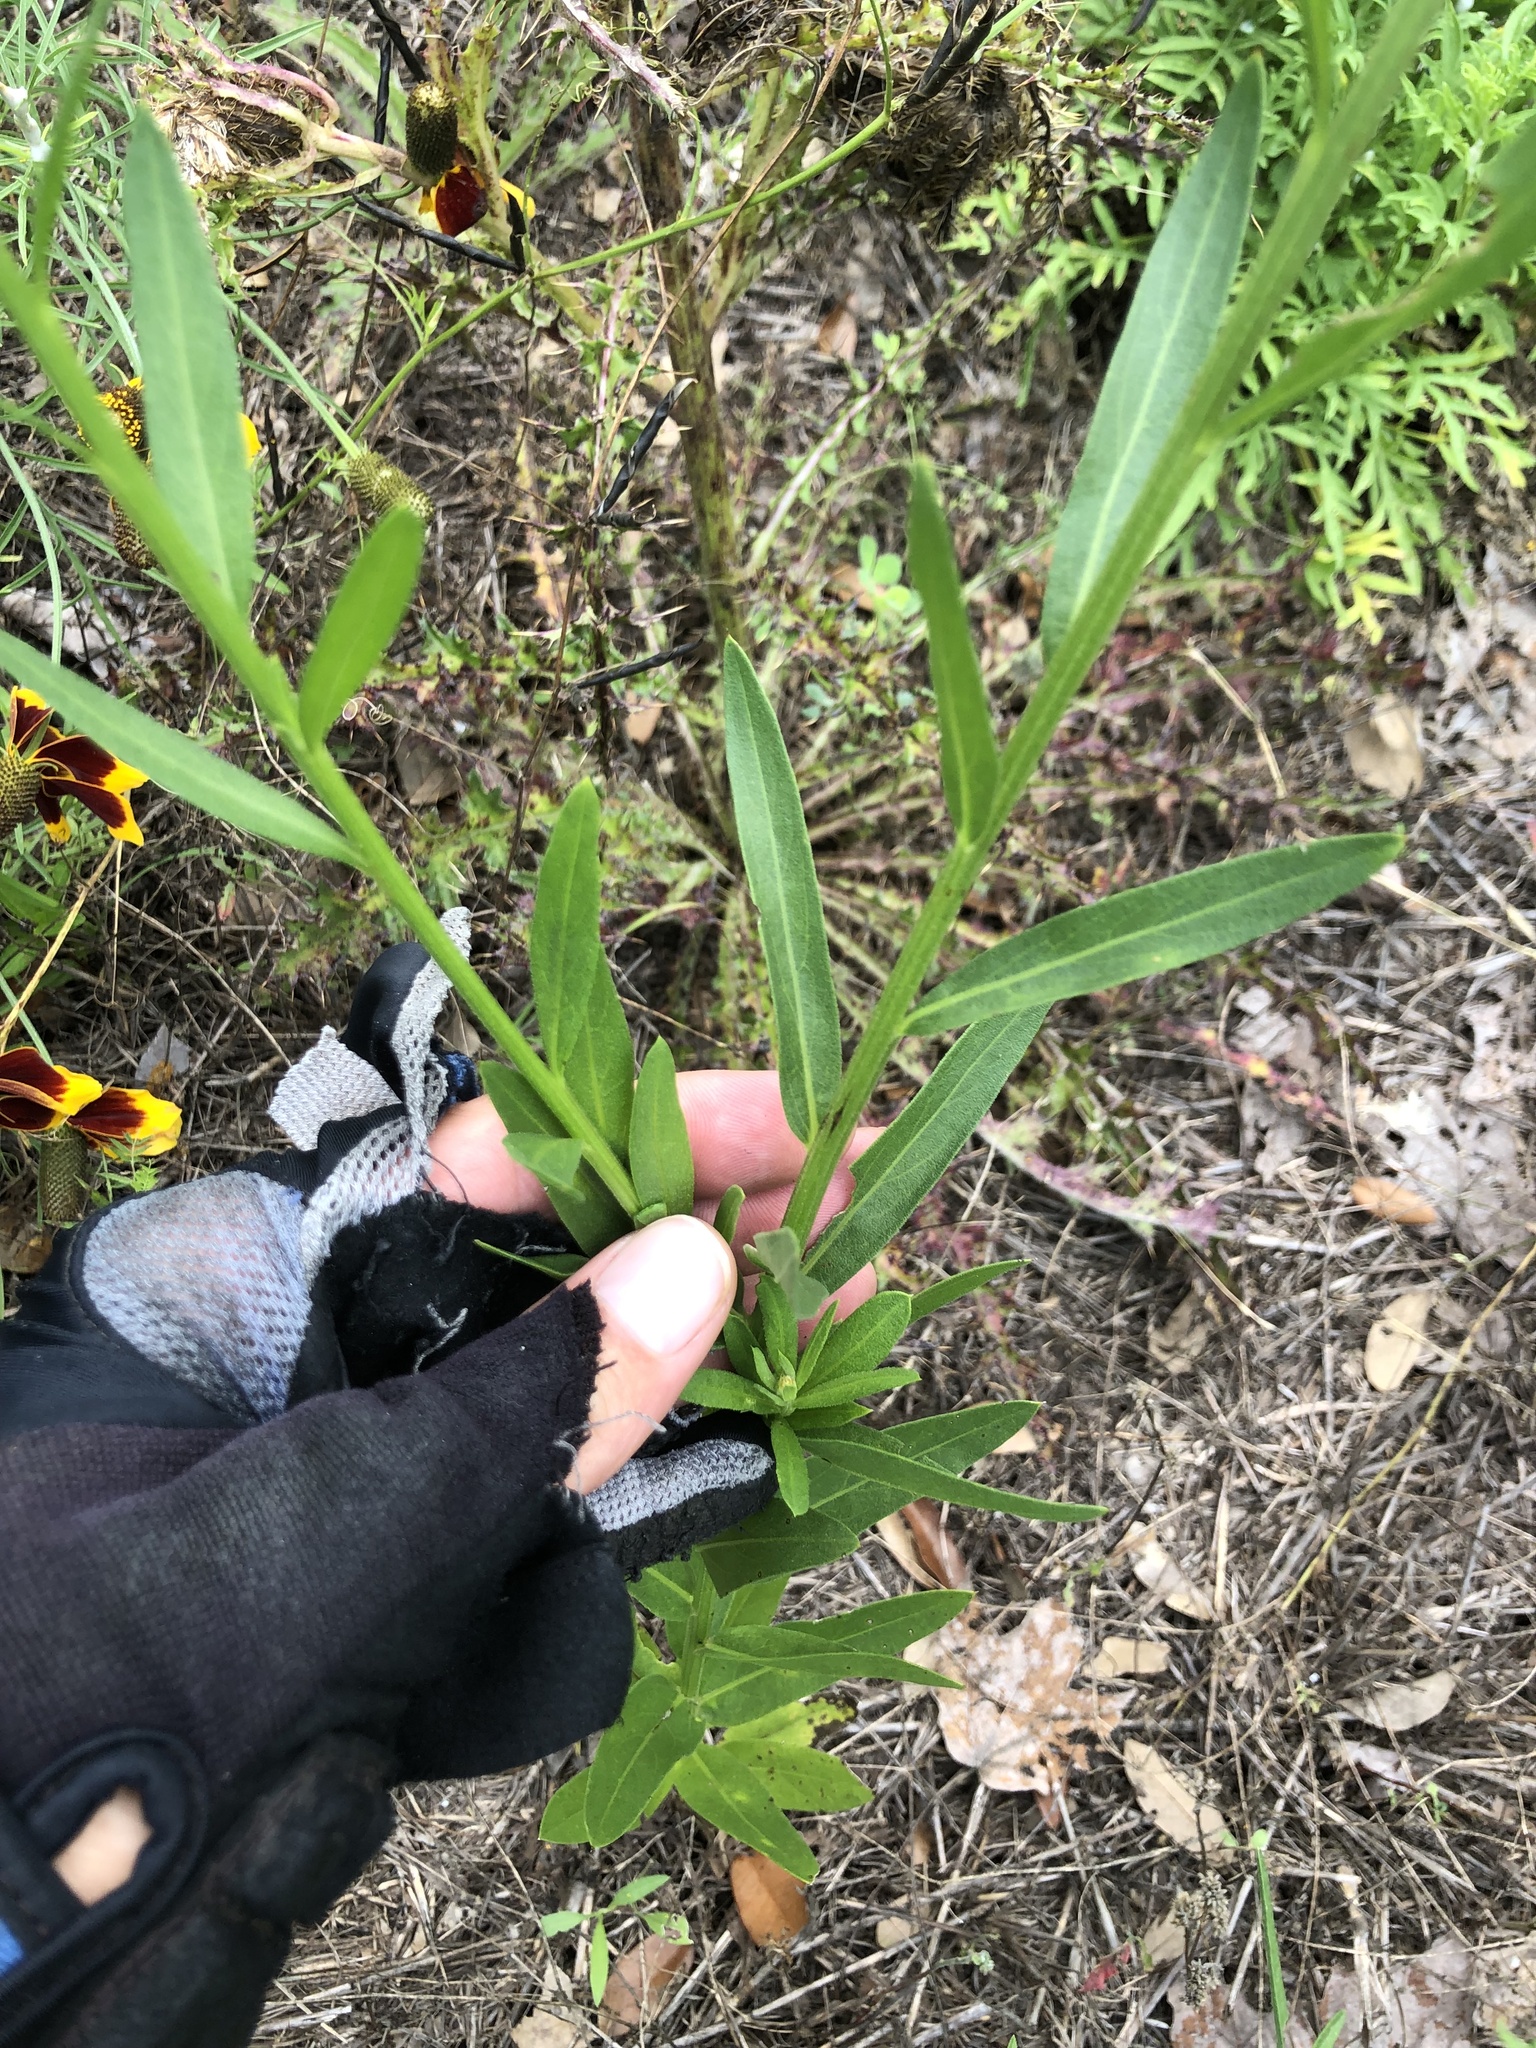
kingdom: Plantae
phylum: Tracheophyta
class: Magnoliopsida
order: Asterales
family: Asteraceae
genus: Plectocephalus
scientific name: Plectocephalus americanus
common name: American basket-flower
